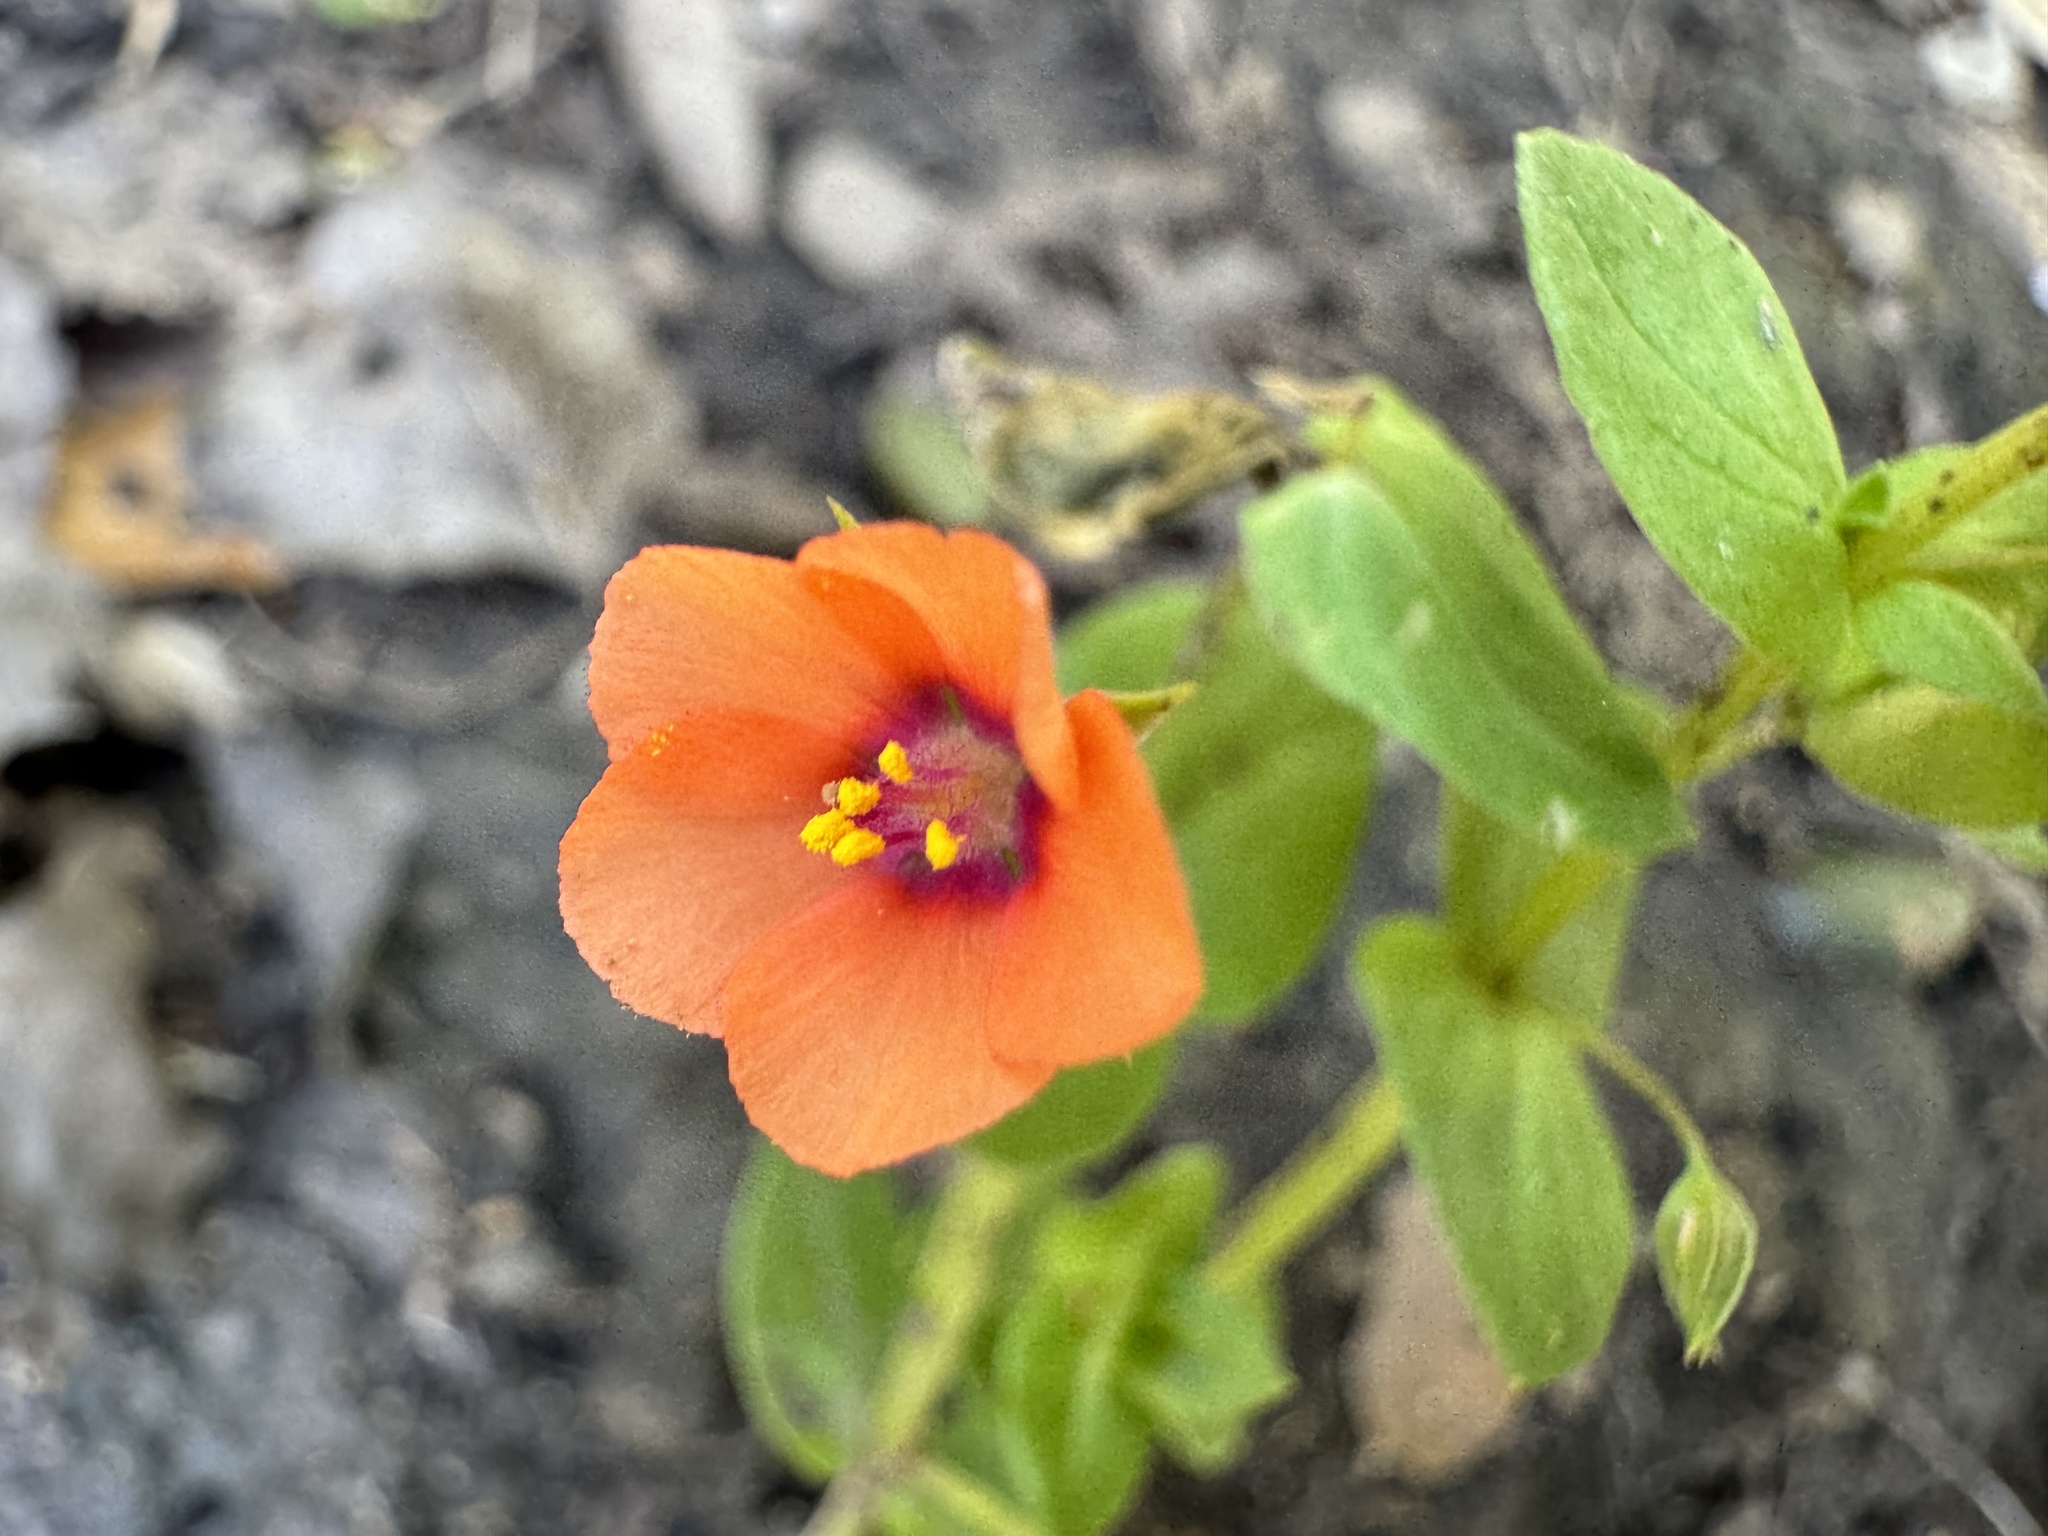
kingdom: Plantae
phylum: Tracheophyta
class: Magnoliopsida
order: Ericales
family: Primulaceae
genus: Lysimachia
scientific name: Lysimachia arvensis
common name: Scarlet pimpernel
